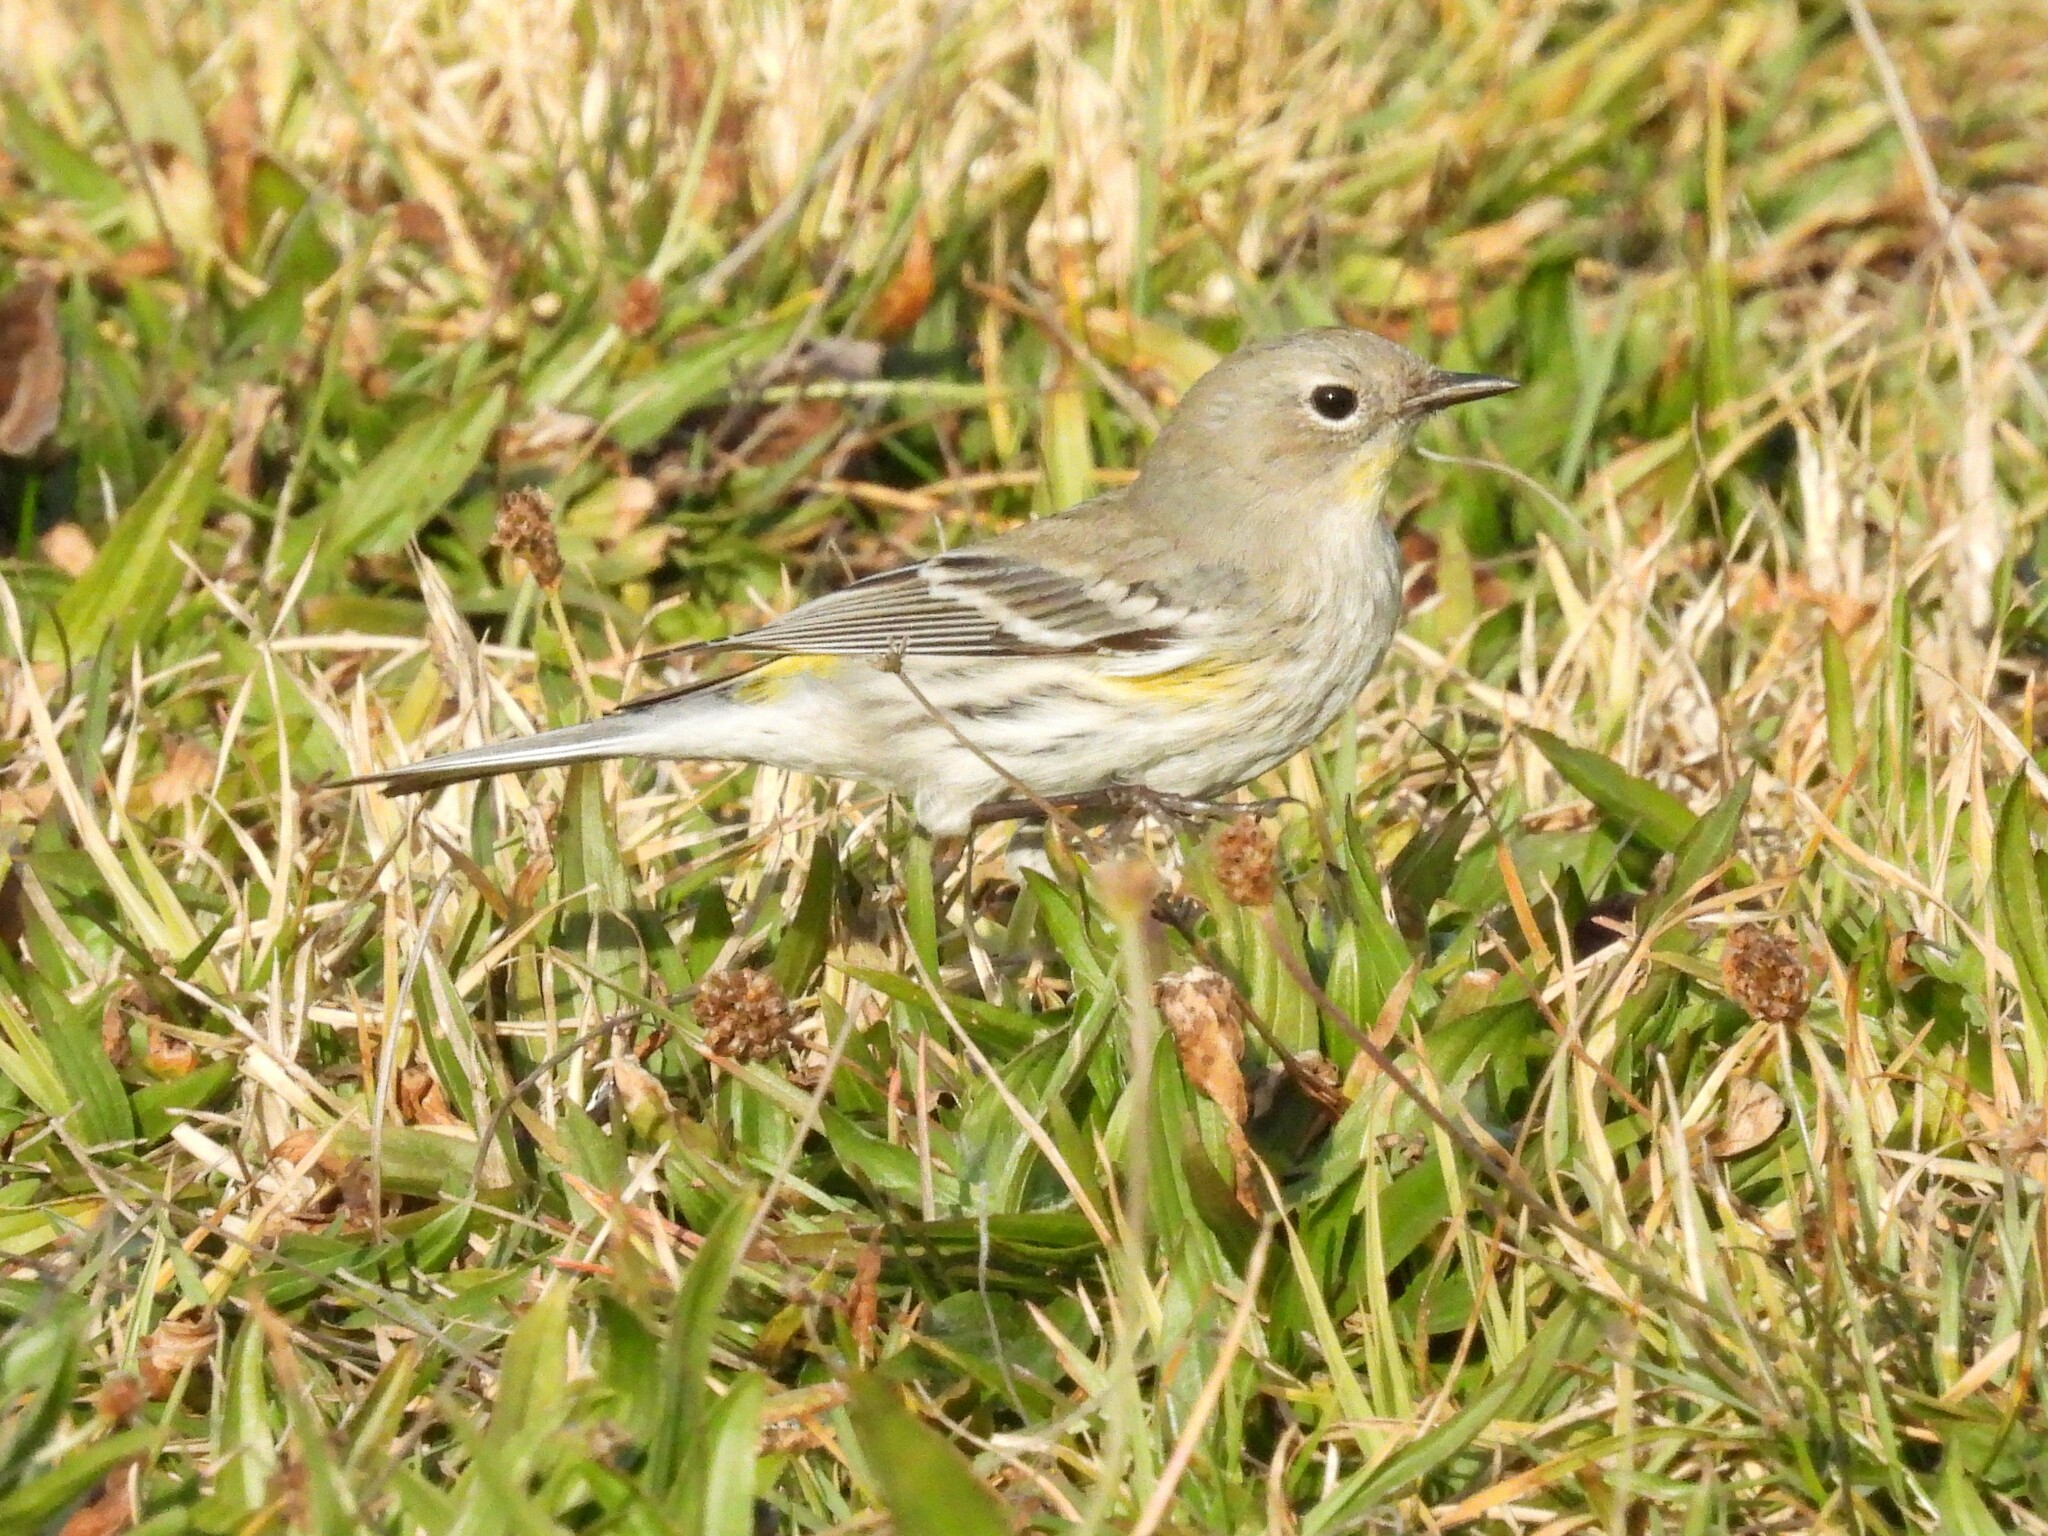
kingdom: Animalia
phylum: Chordata
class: Aves
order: Passeriformes
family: Parulidae
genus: Setophaga
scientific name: Setophaga coronata
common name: Myrtle warbler
